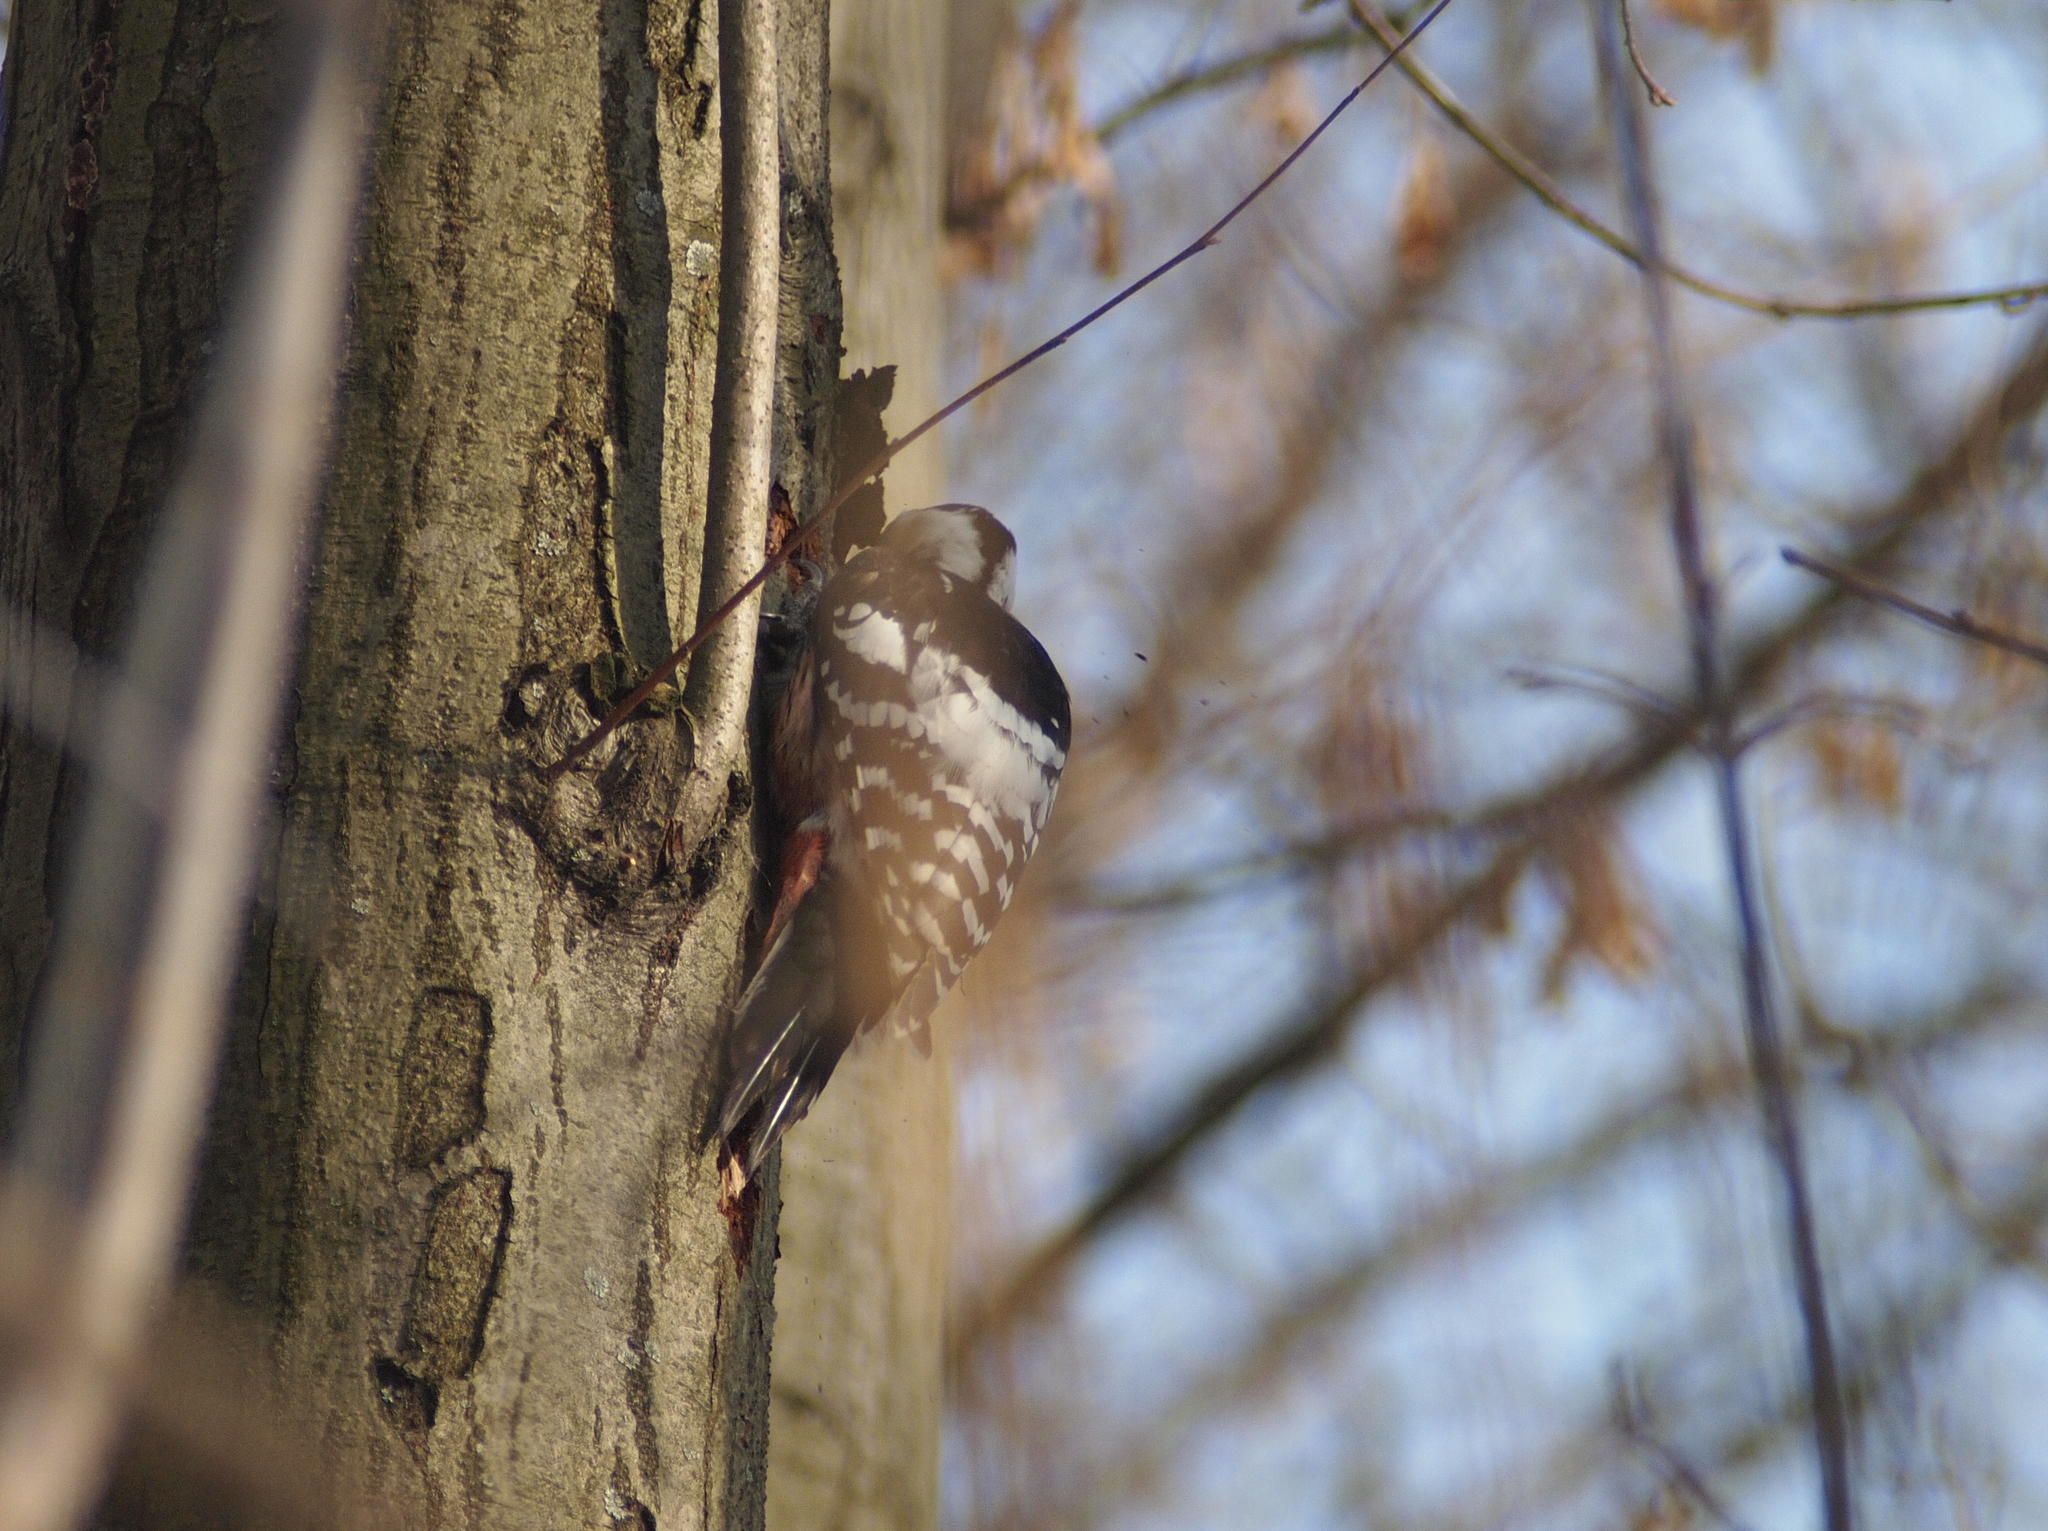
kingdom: Animalia
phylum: Chordata
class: Aves
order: Piciformes
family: Picidae
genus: Dendrocopos
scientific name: Dendrocopos leucotos
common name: White-backed woodpecker
